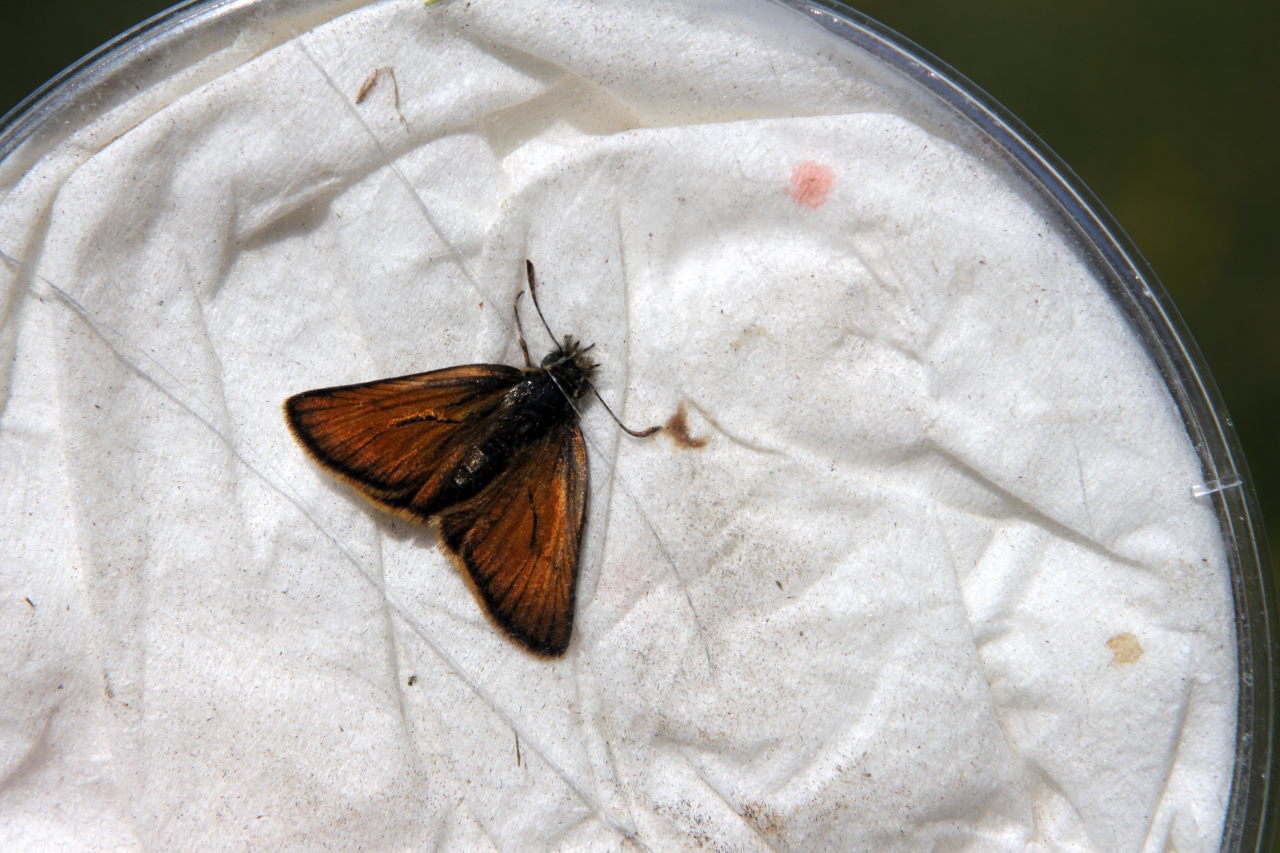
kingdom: Animalia
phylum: Arthropoda
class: Insecta
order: Lepidoptera
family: Hesperiidae
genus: Thymelicus
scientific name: Thymelicus sylvestris
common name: Small skipper
